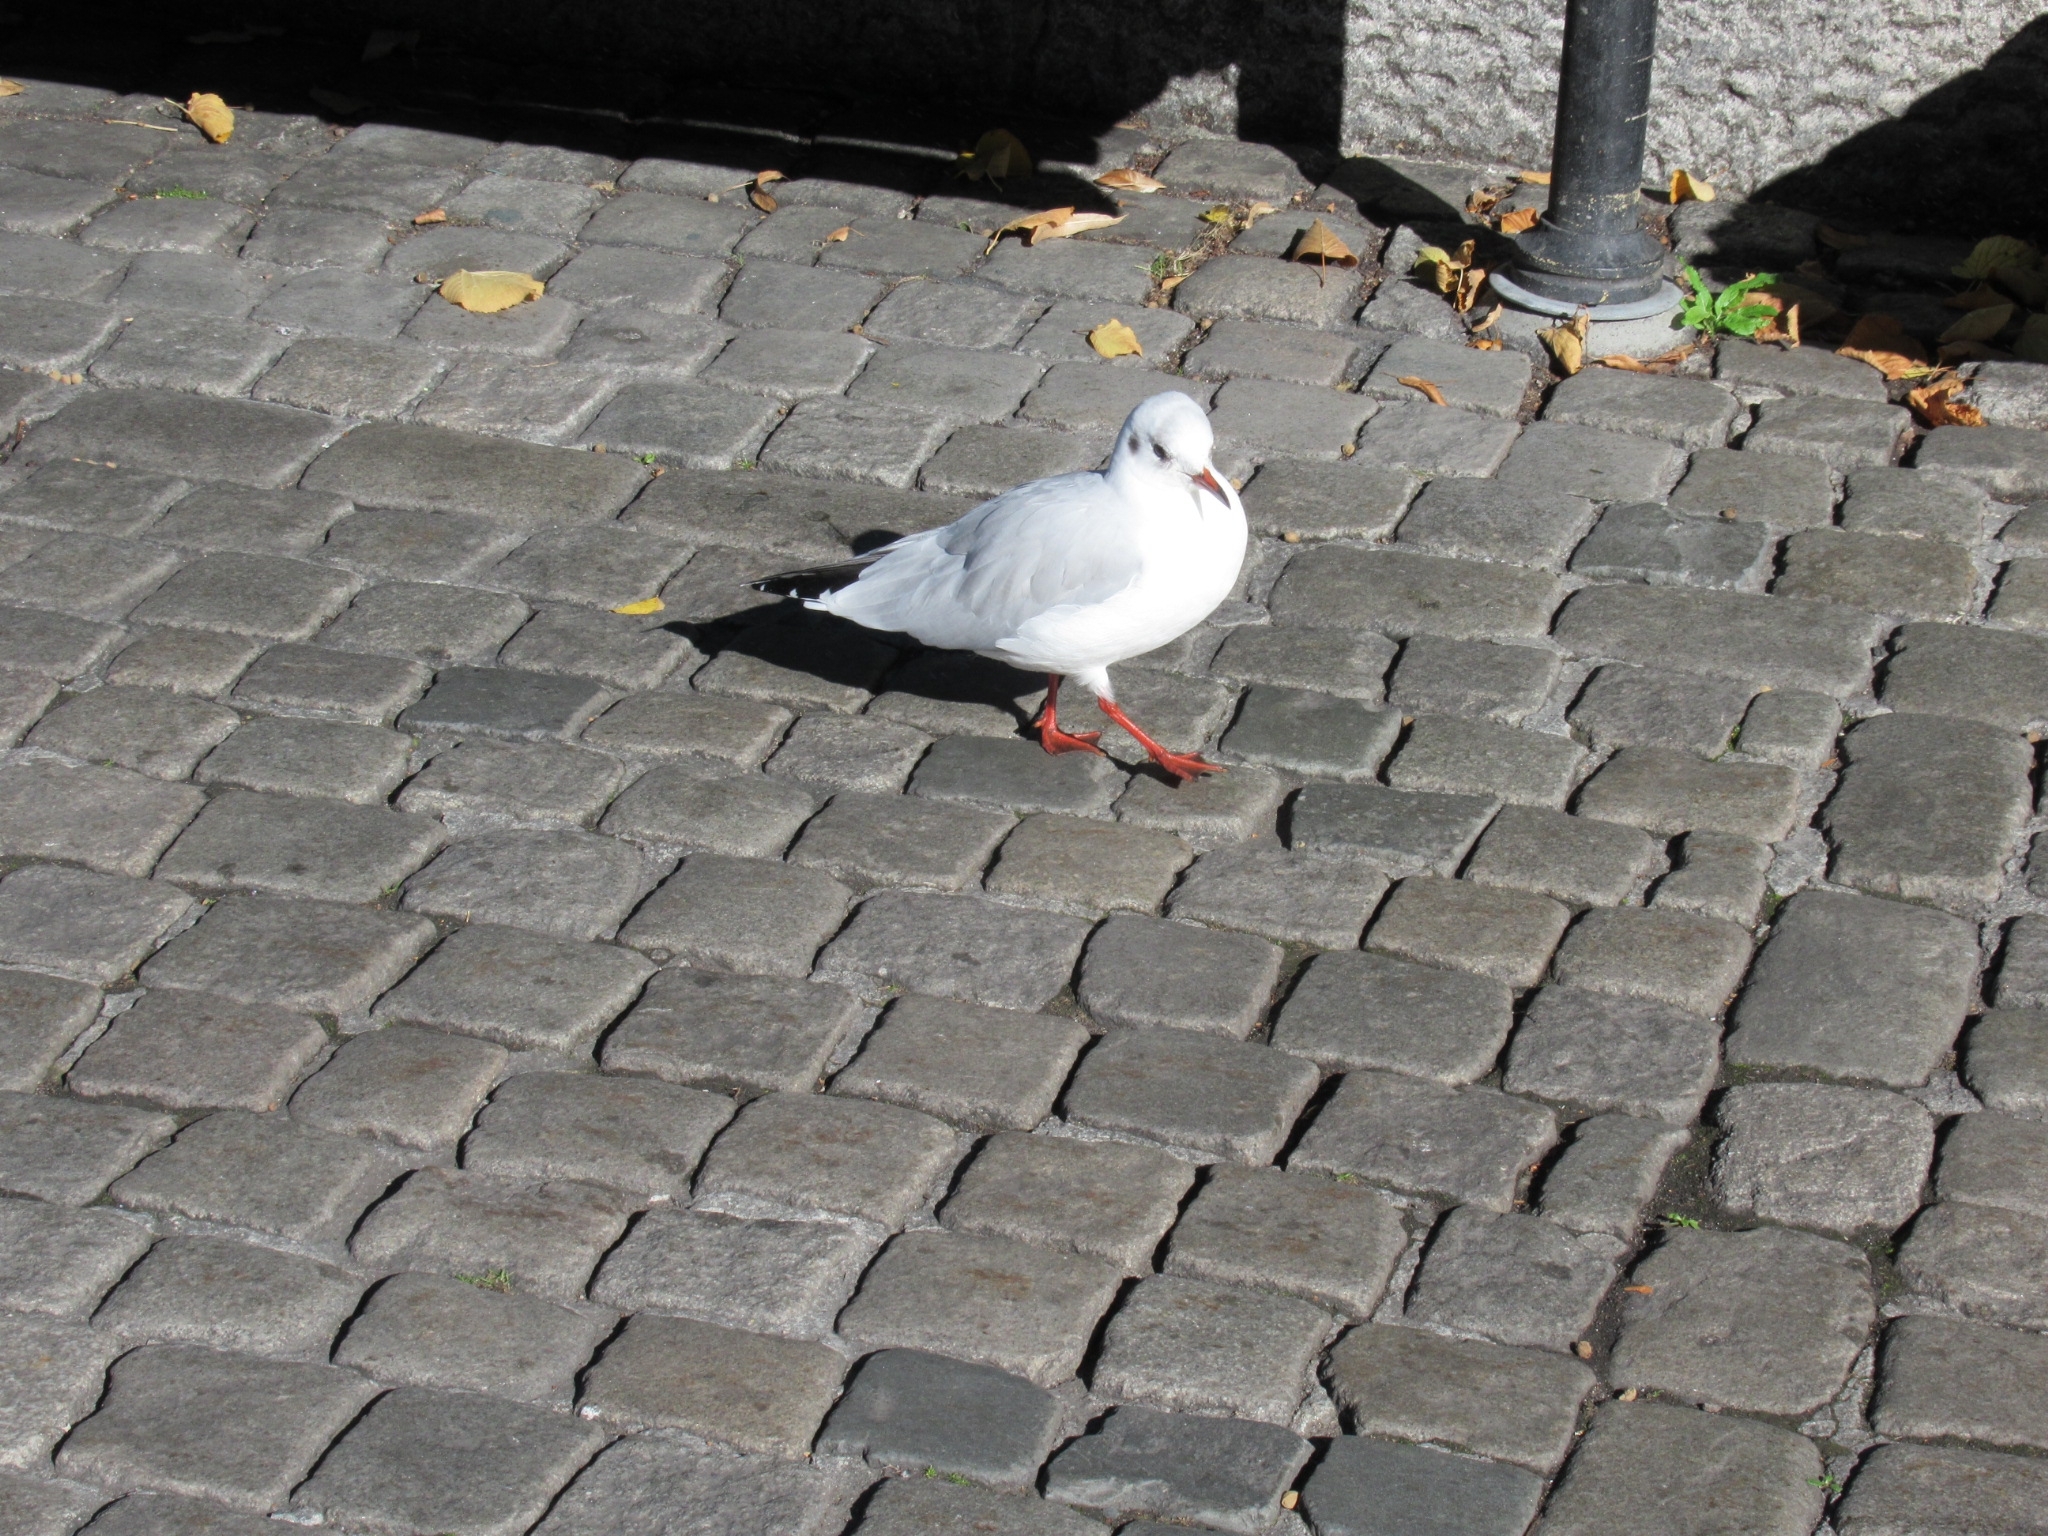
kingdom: Animalia
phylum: Chordata
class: Aves
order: Charadriiformes
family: Laridae
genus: Chroicocephalus
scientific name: Chroicocephalus ridibundus
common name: Black-headed gull
